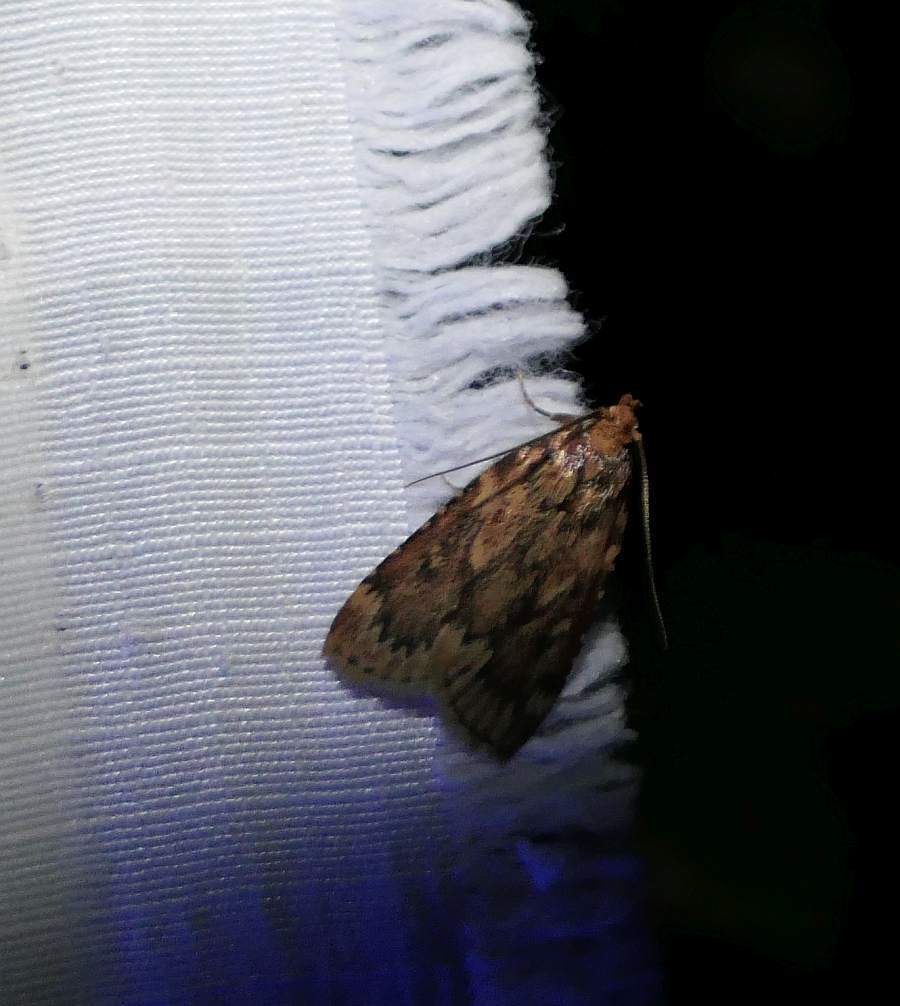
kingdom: Animalia
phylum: Arthropoda
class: Insecta
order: Lepidoptera
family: Pyralidae
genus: Aglossa
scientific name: Aglossa cuprina
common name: Grease moth
